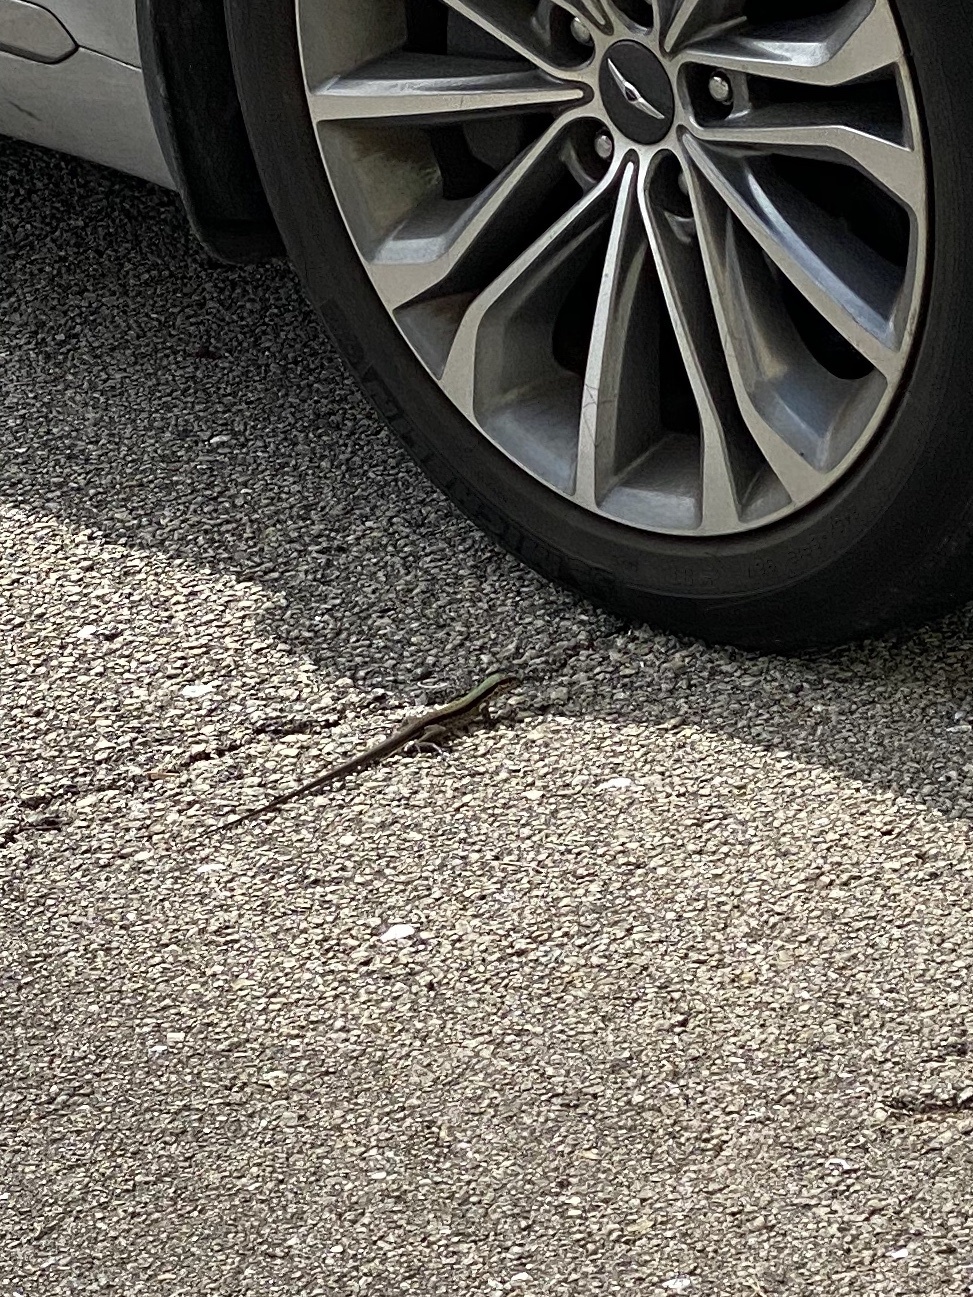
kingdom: Animalia
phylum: Chordata
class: Squamata
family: Teiidae
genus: Ameiva
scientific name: Ameiva ameiva
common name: Giant ameiva
